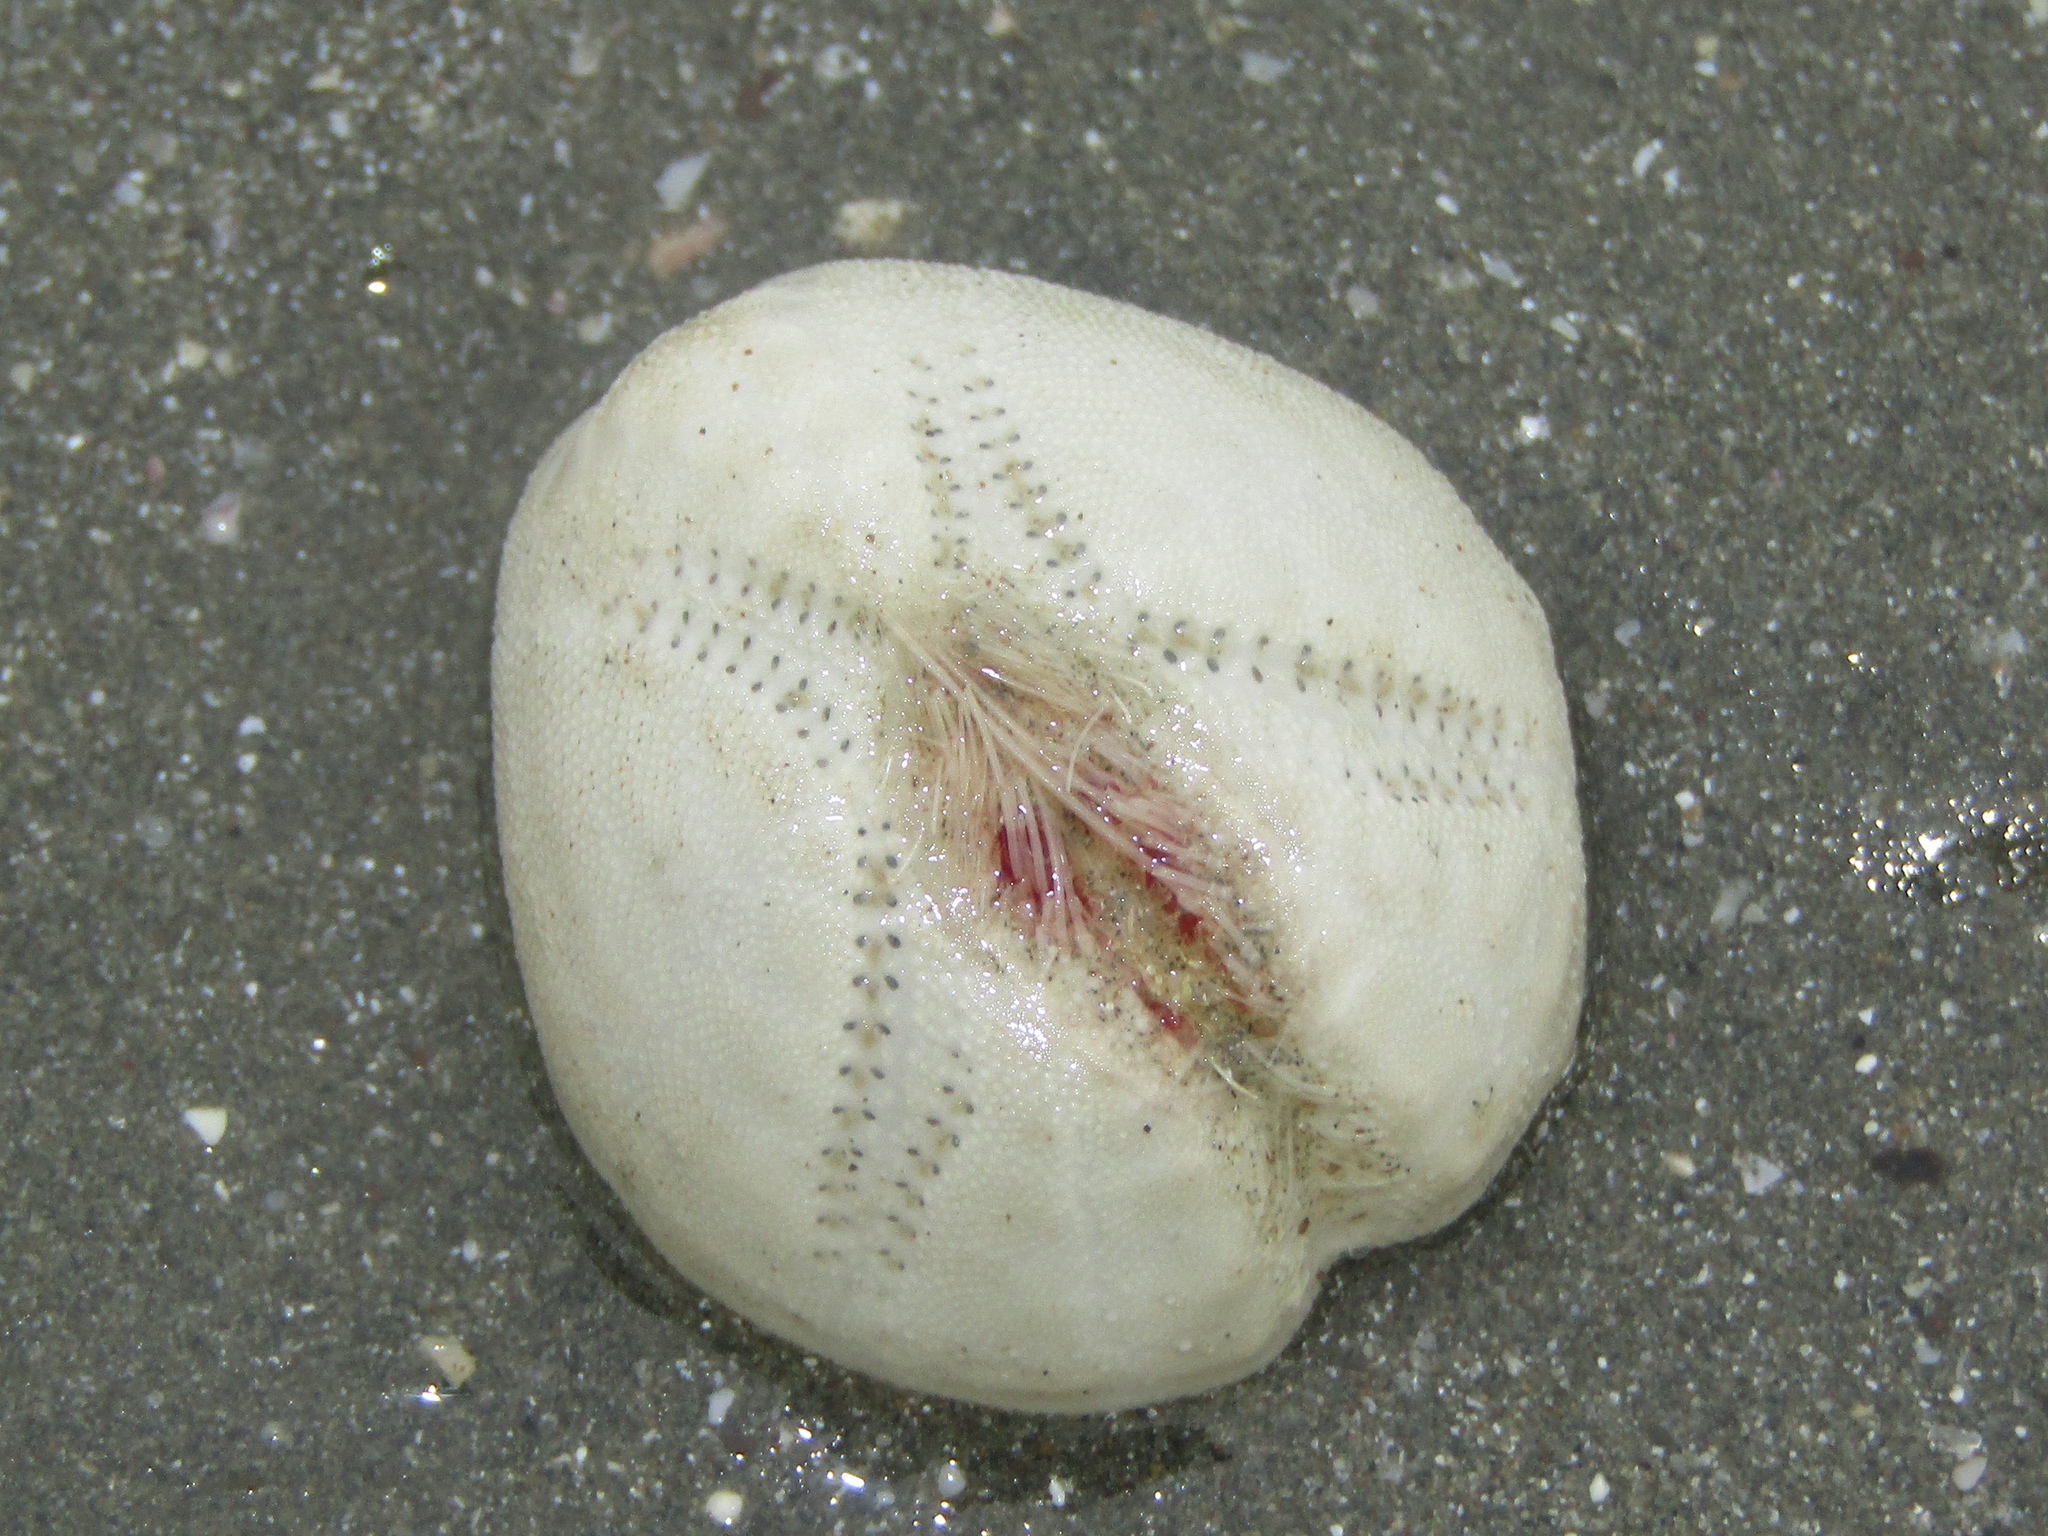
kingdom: Animalia
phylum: Echinodermata
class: Echinoidea
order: Spatangoida
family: Loveniidae
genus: Echinocardium
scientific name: Echinocardium cordatum
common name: Heart-urchin
